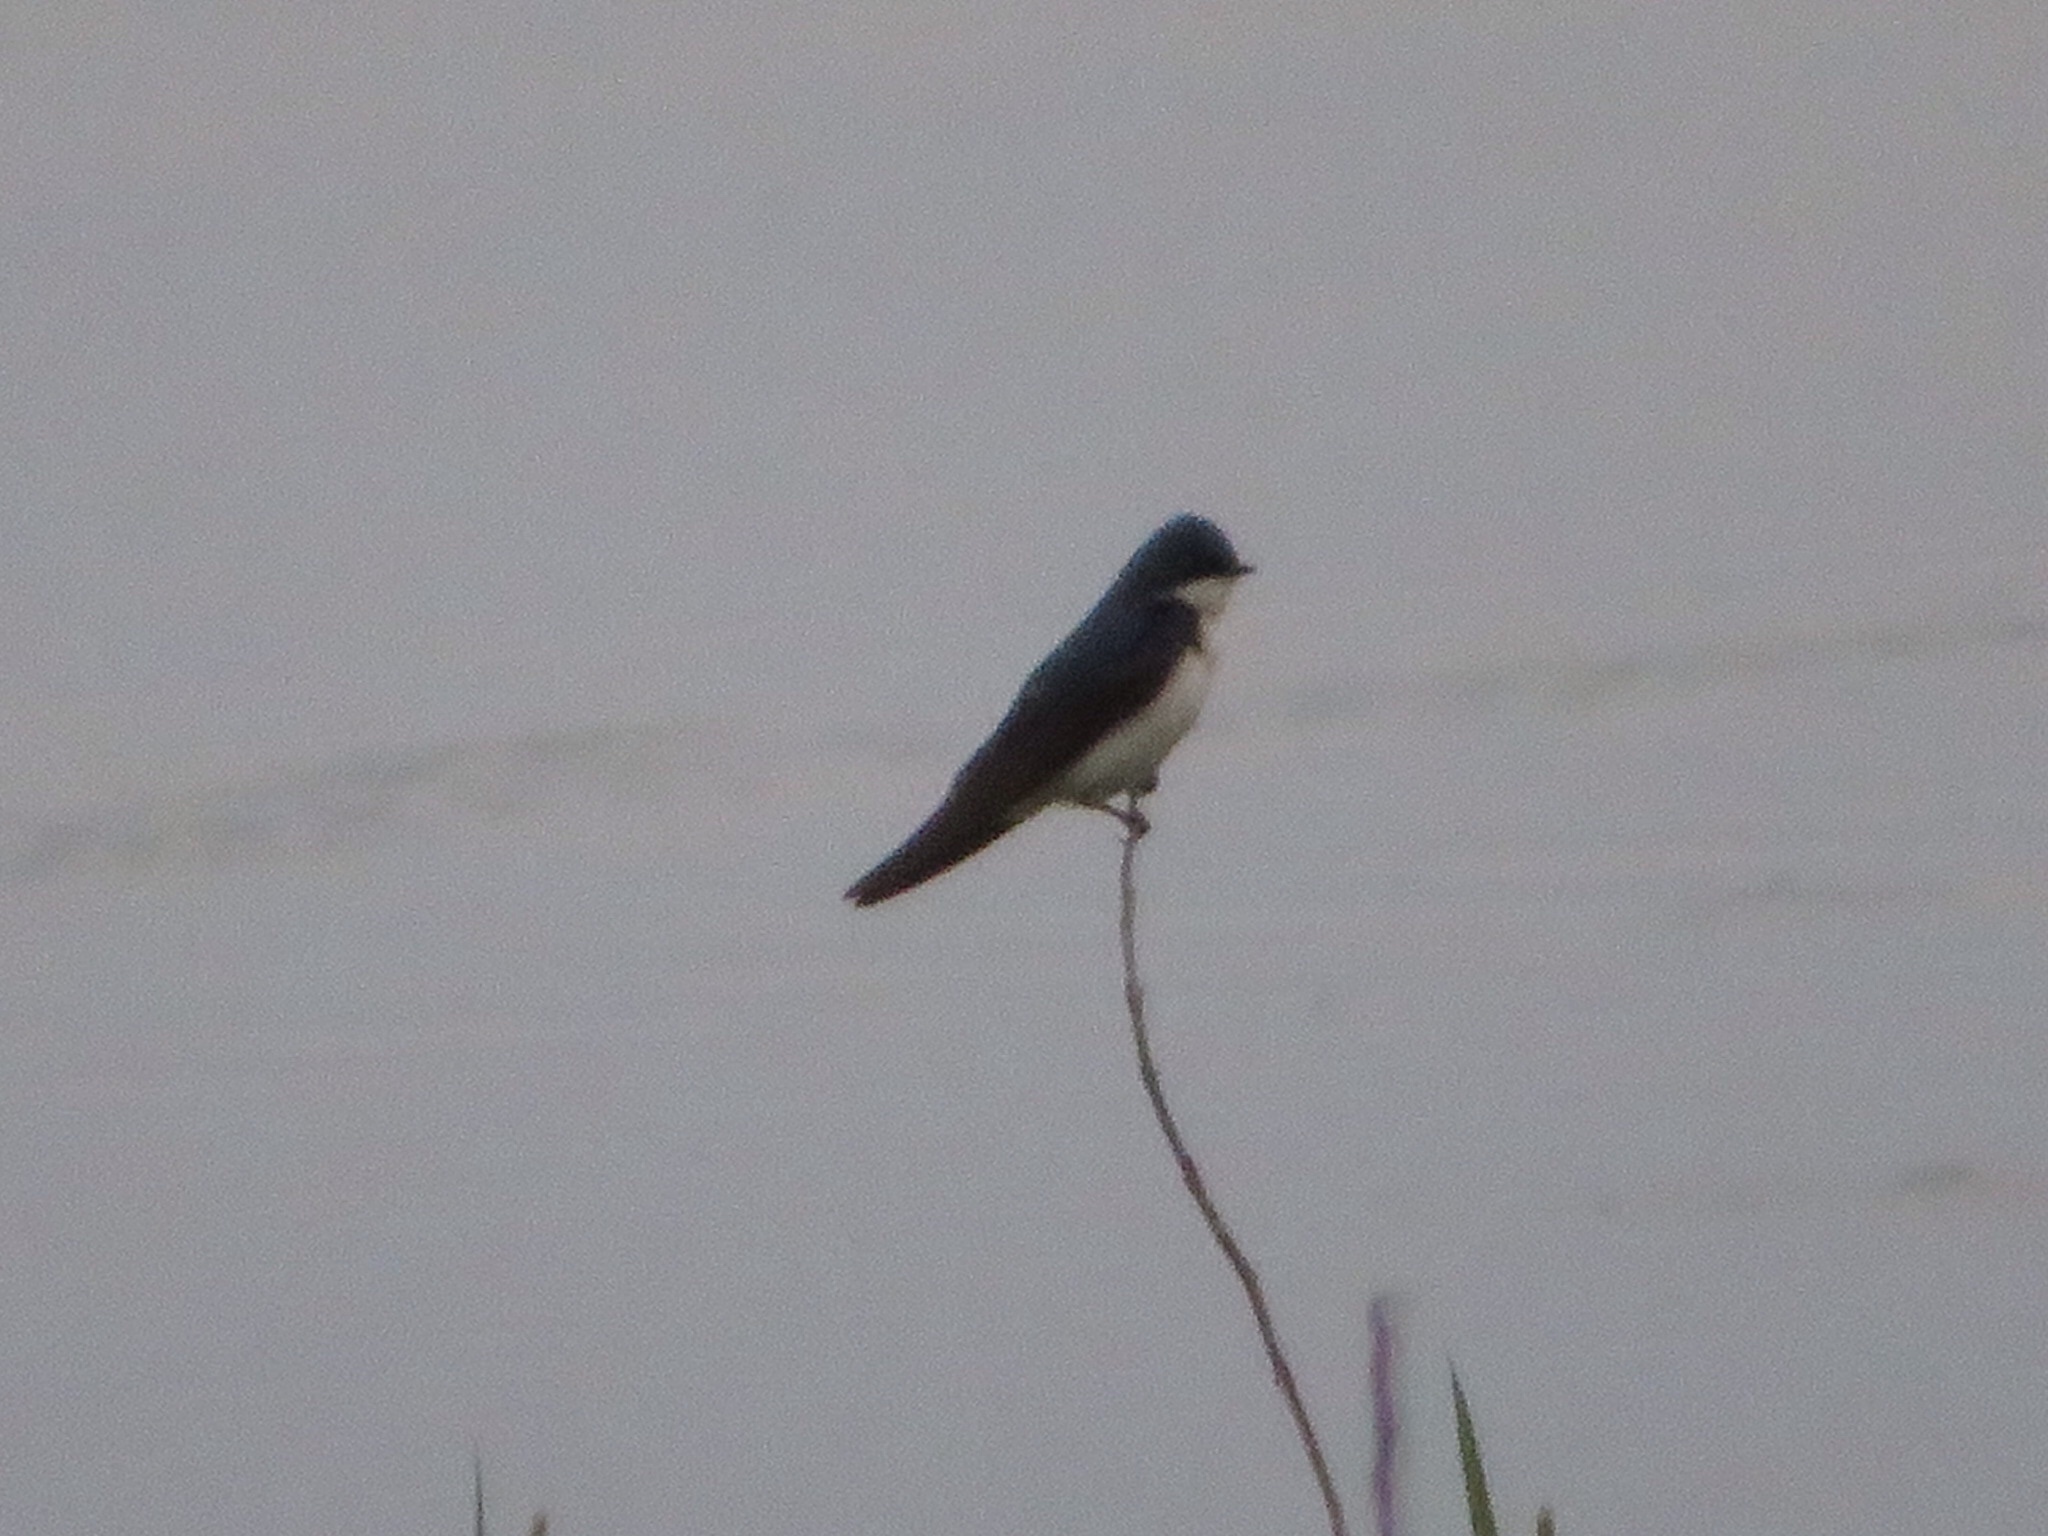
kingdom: Animalia
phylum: Chordata
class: Aves
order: Passeriformes
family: Hirundinidae
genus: Tachycineta
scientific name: Tachycineta bicolor
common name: Tree swallow
